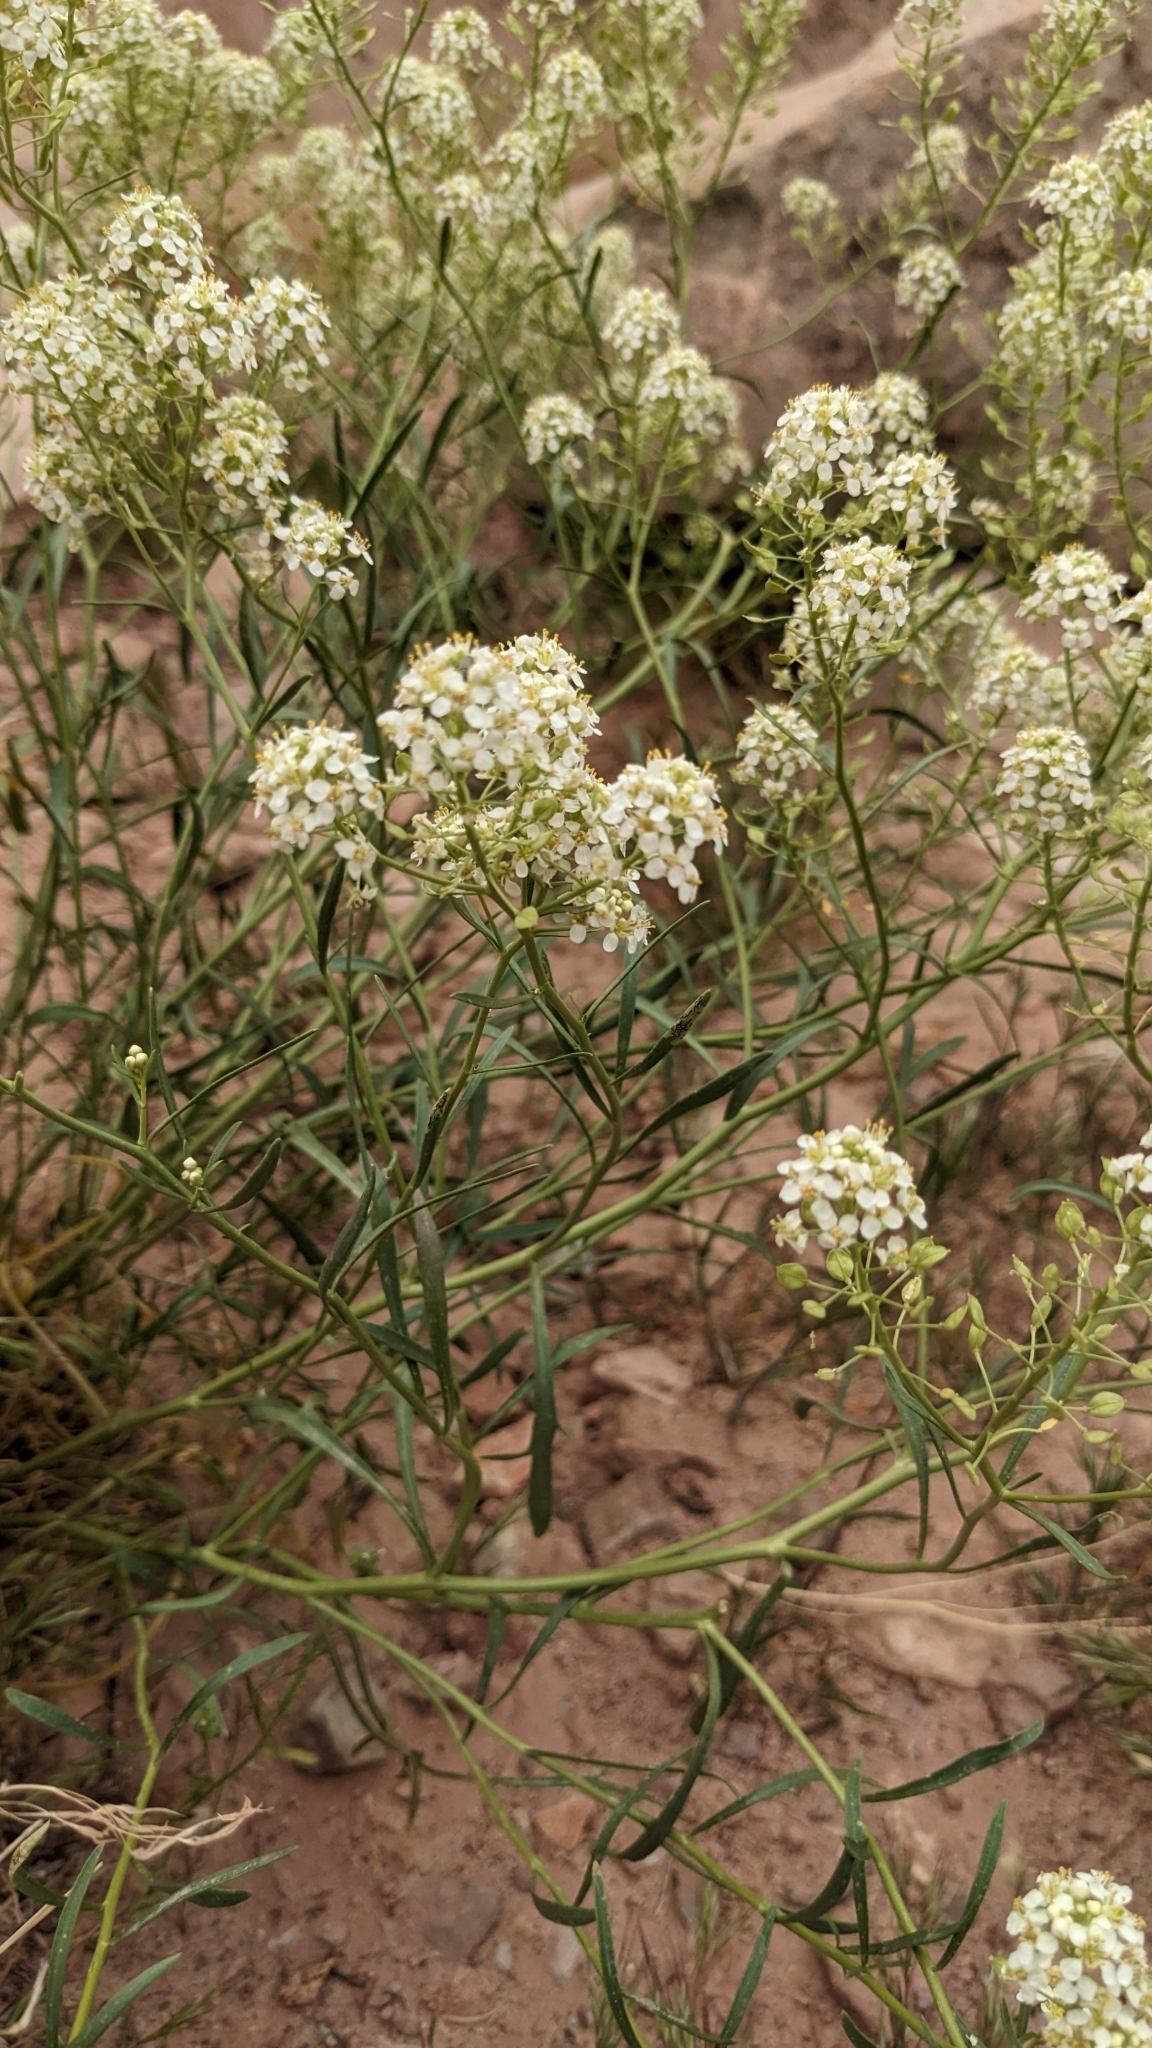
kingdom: Plantae
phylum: Tracheophyta
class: Magnoliopsida
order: Brassicales
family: Brassicaceae
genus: Lepidium
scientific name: Lepidium montanum
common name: Mountain pepperplant
